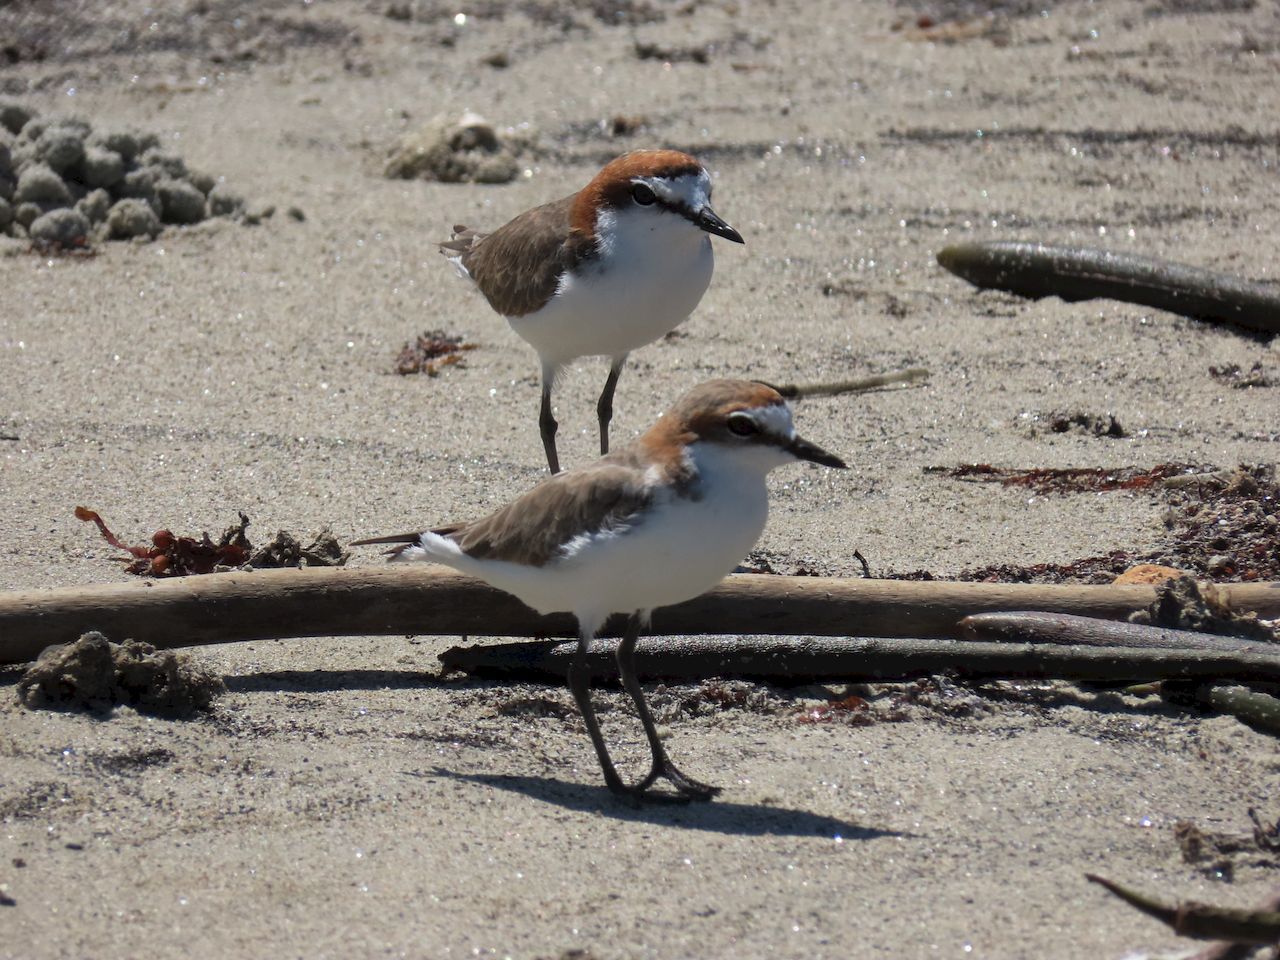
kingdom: Animalia
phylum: Chordata
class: Aves
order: Charadriiformes
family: Charadriidae
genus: Anarhynchus
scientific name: Anarhynchus
